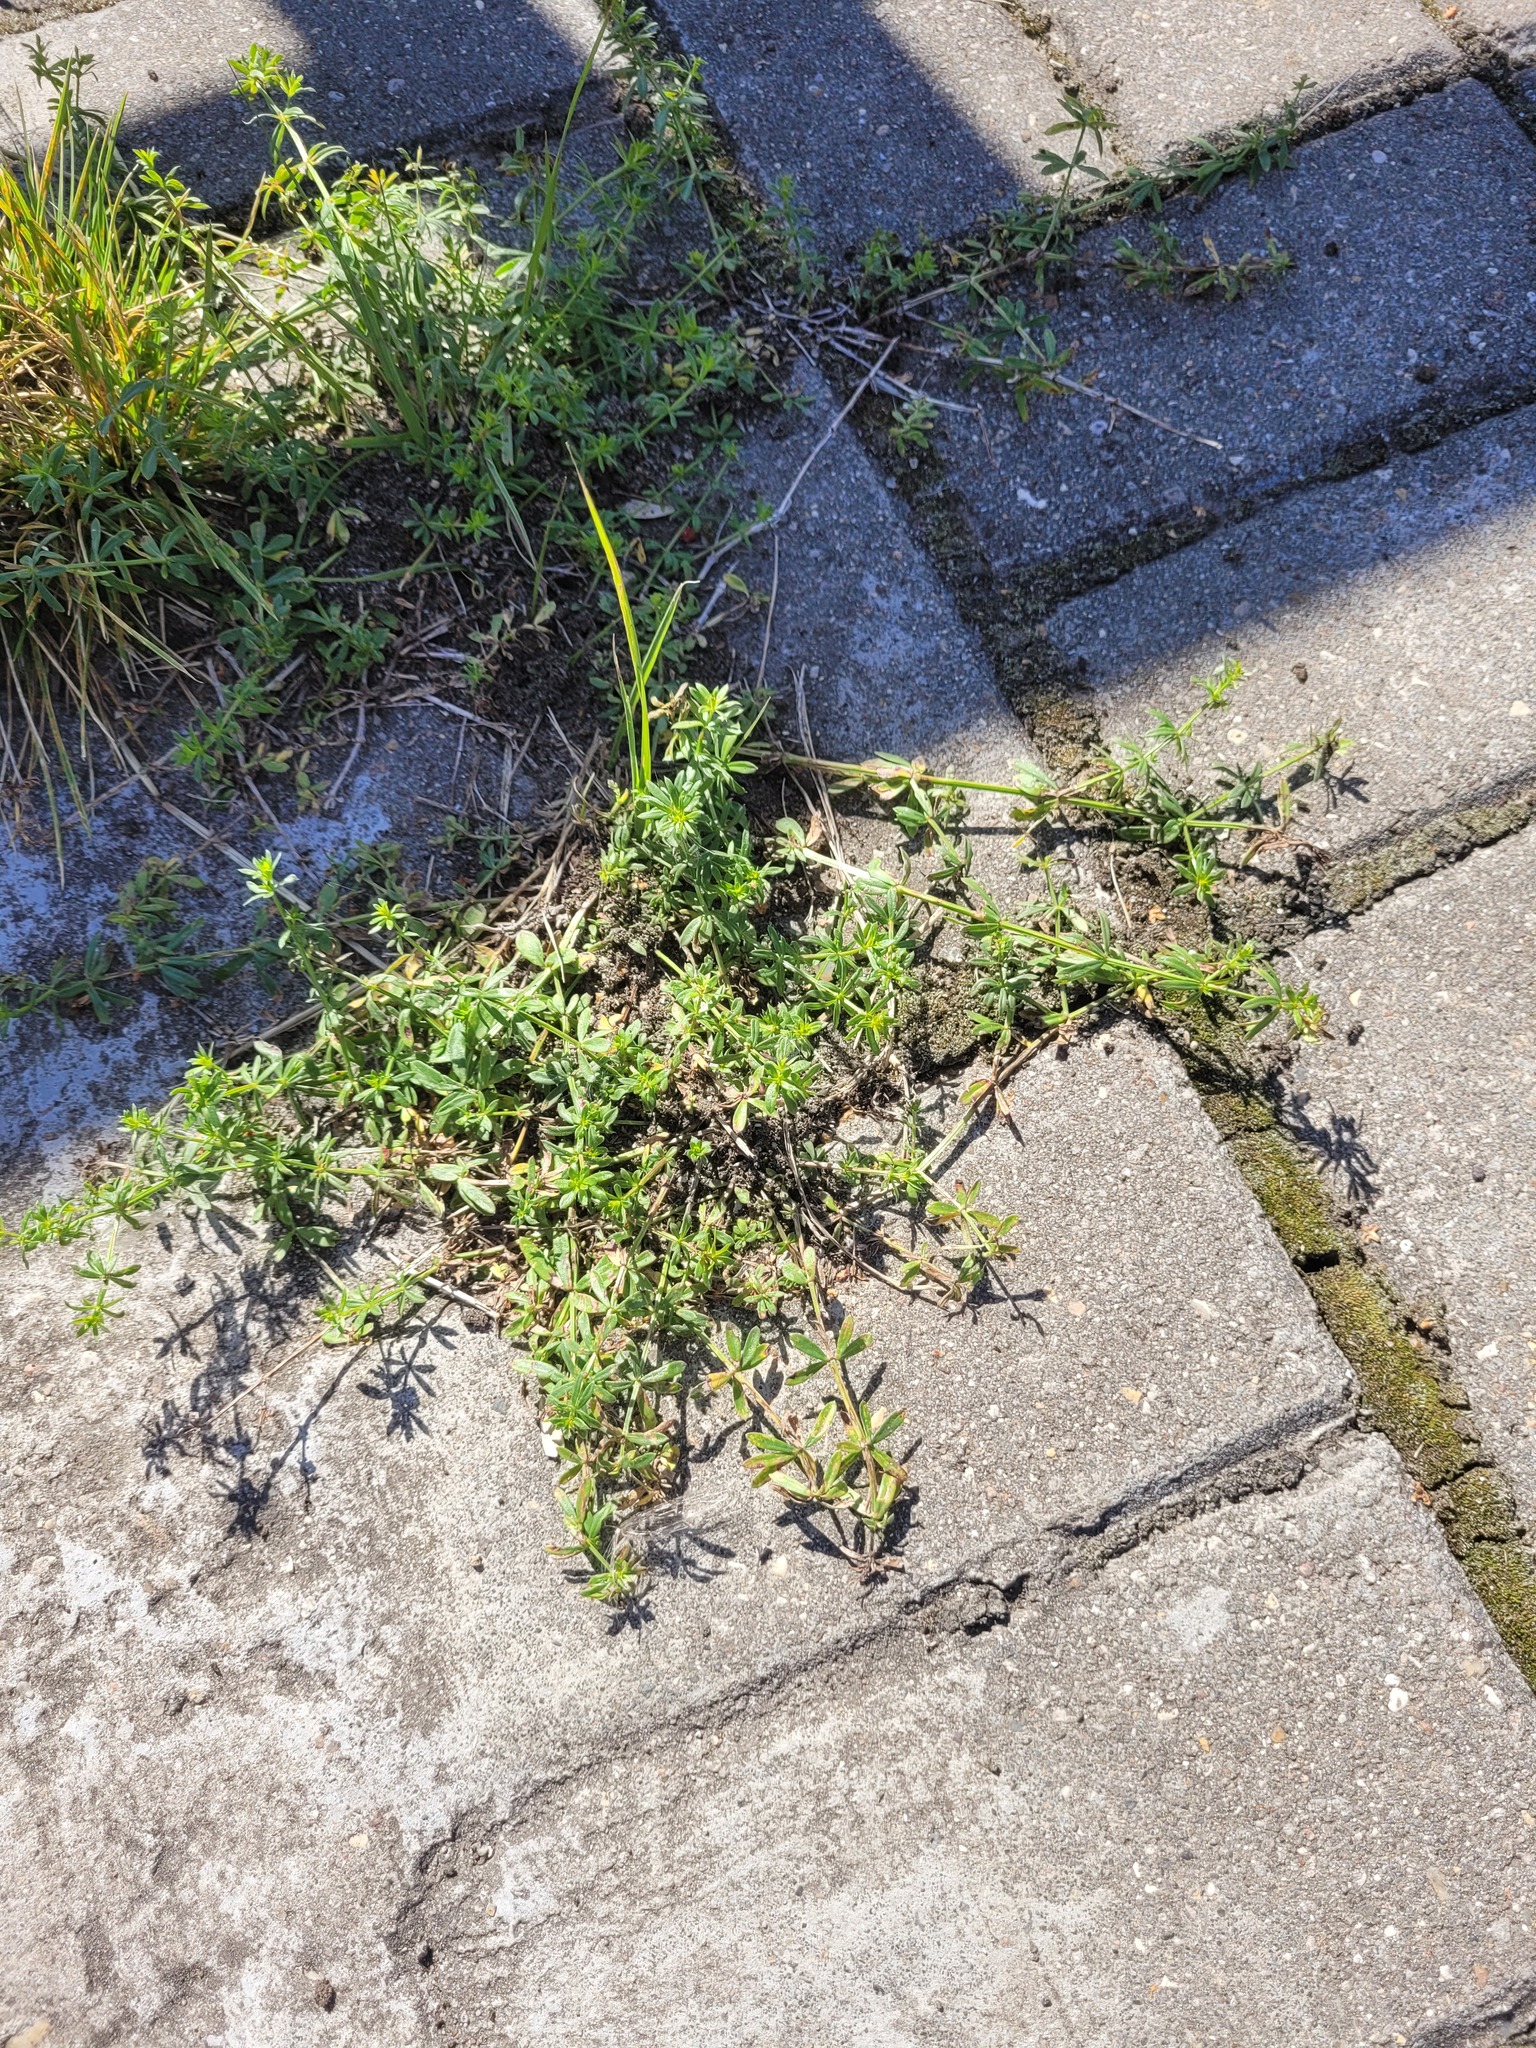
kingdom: Plantae
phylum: Tracheophyta
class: Magnoliopsida
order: Gentianales
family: Rubiaceae
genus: Galium
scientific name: Galium mollugo
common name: Hedge bedstraw
